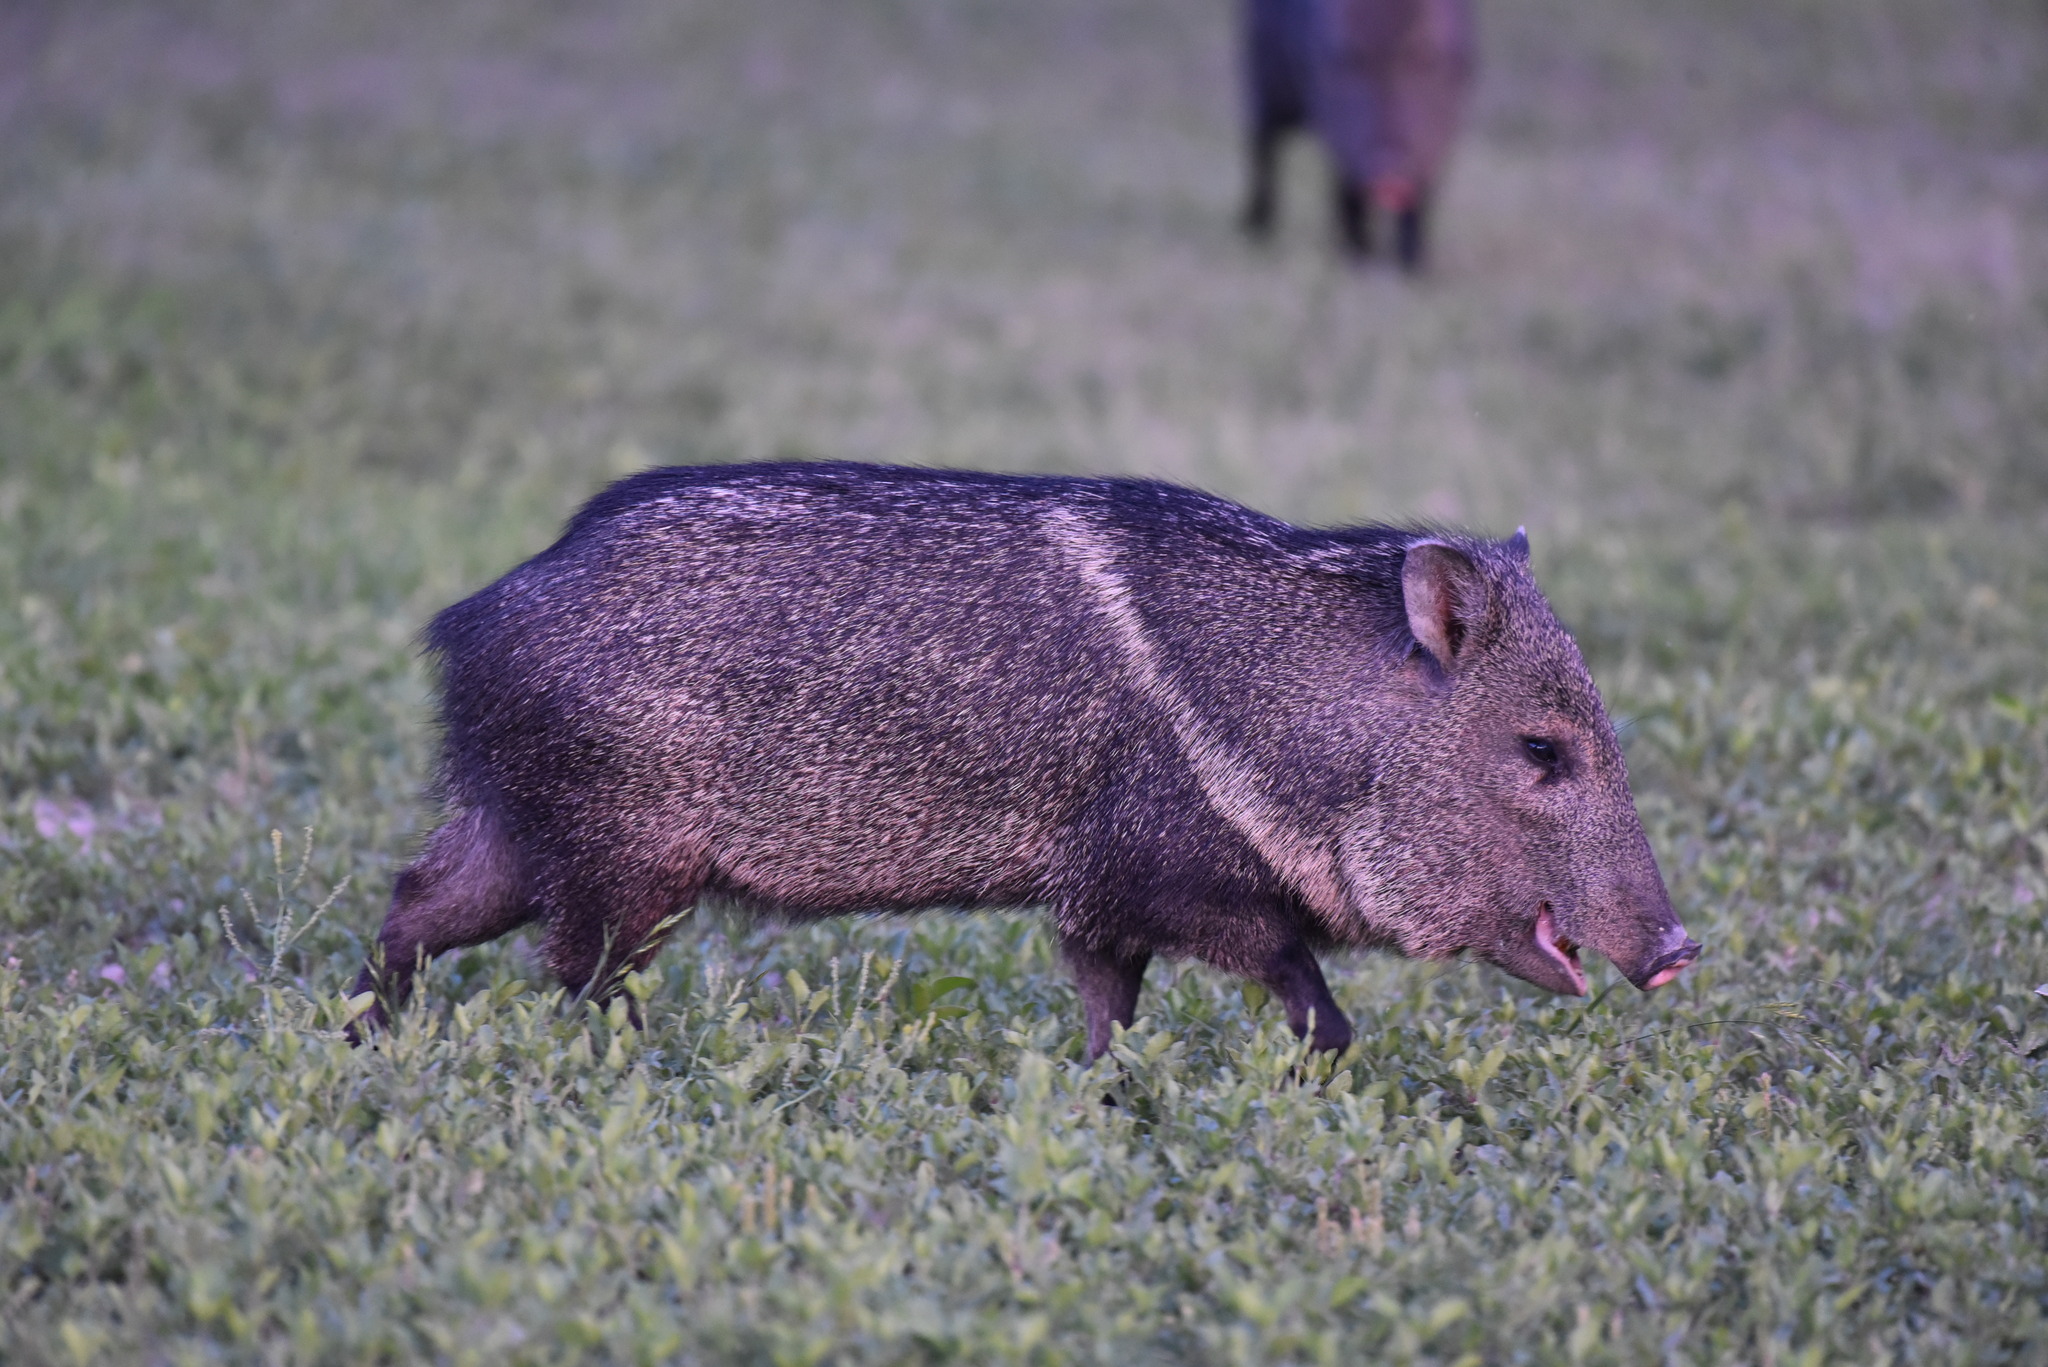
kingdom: Animalia
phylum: Chordata
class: Mammalia
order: Artiodactyla
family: Tayassuidae
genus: Pecari
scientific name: Pecari tajacu
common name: Collared peccary
